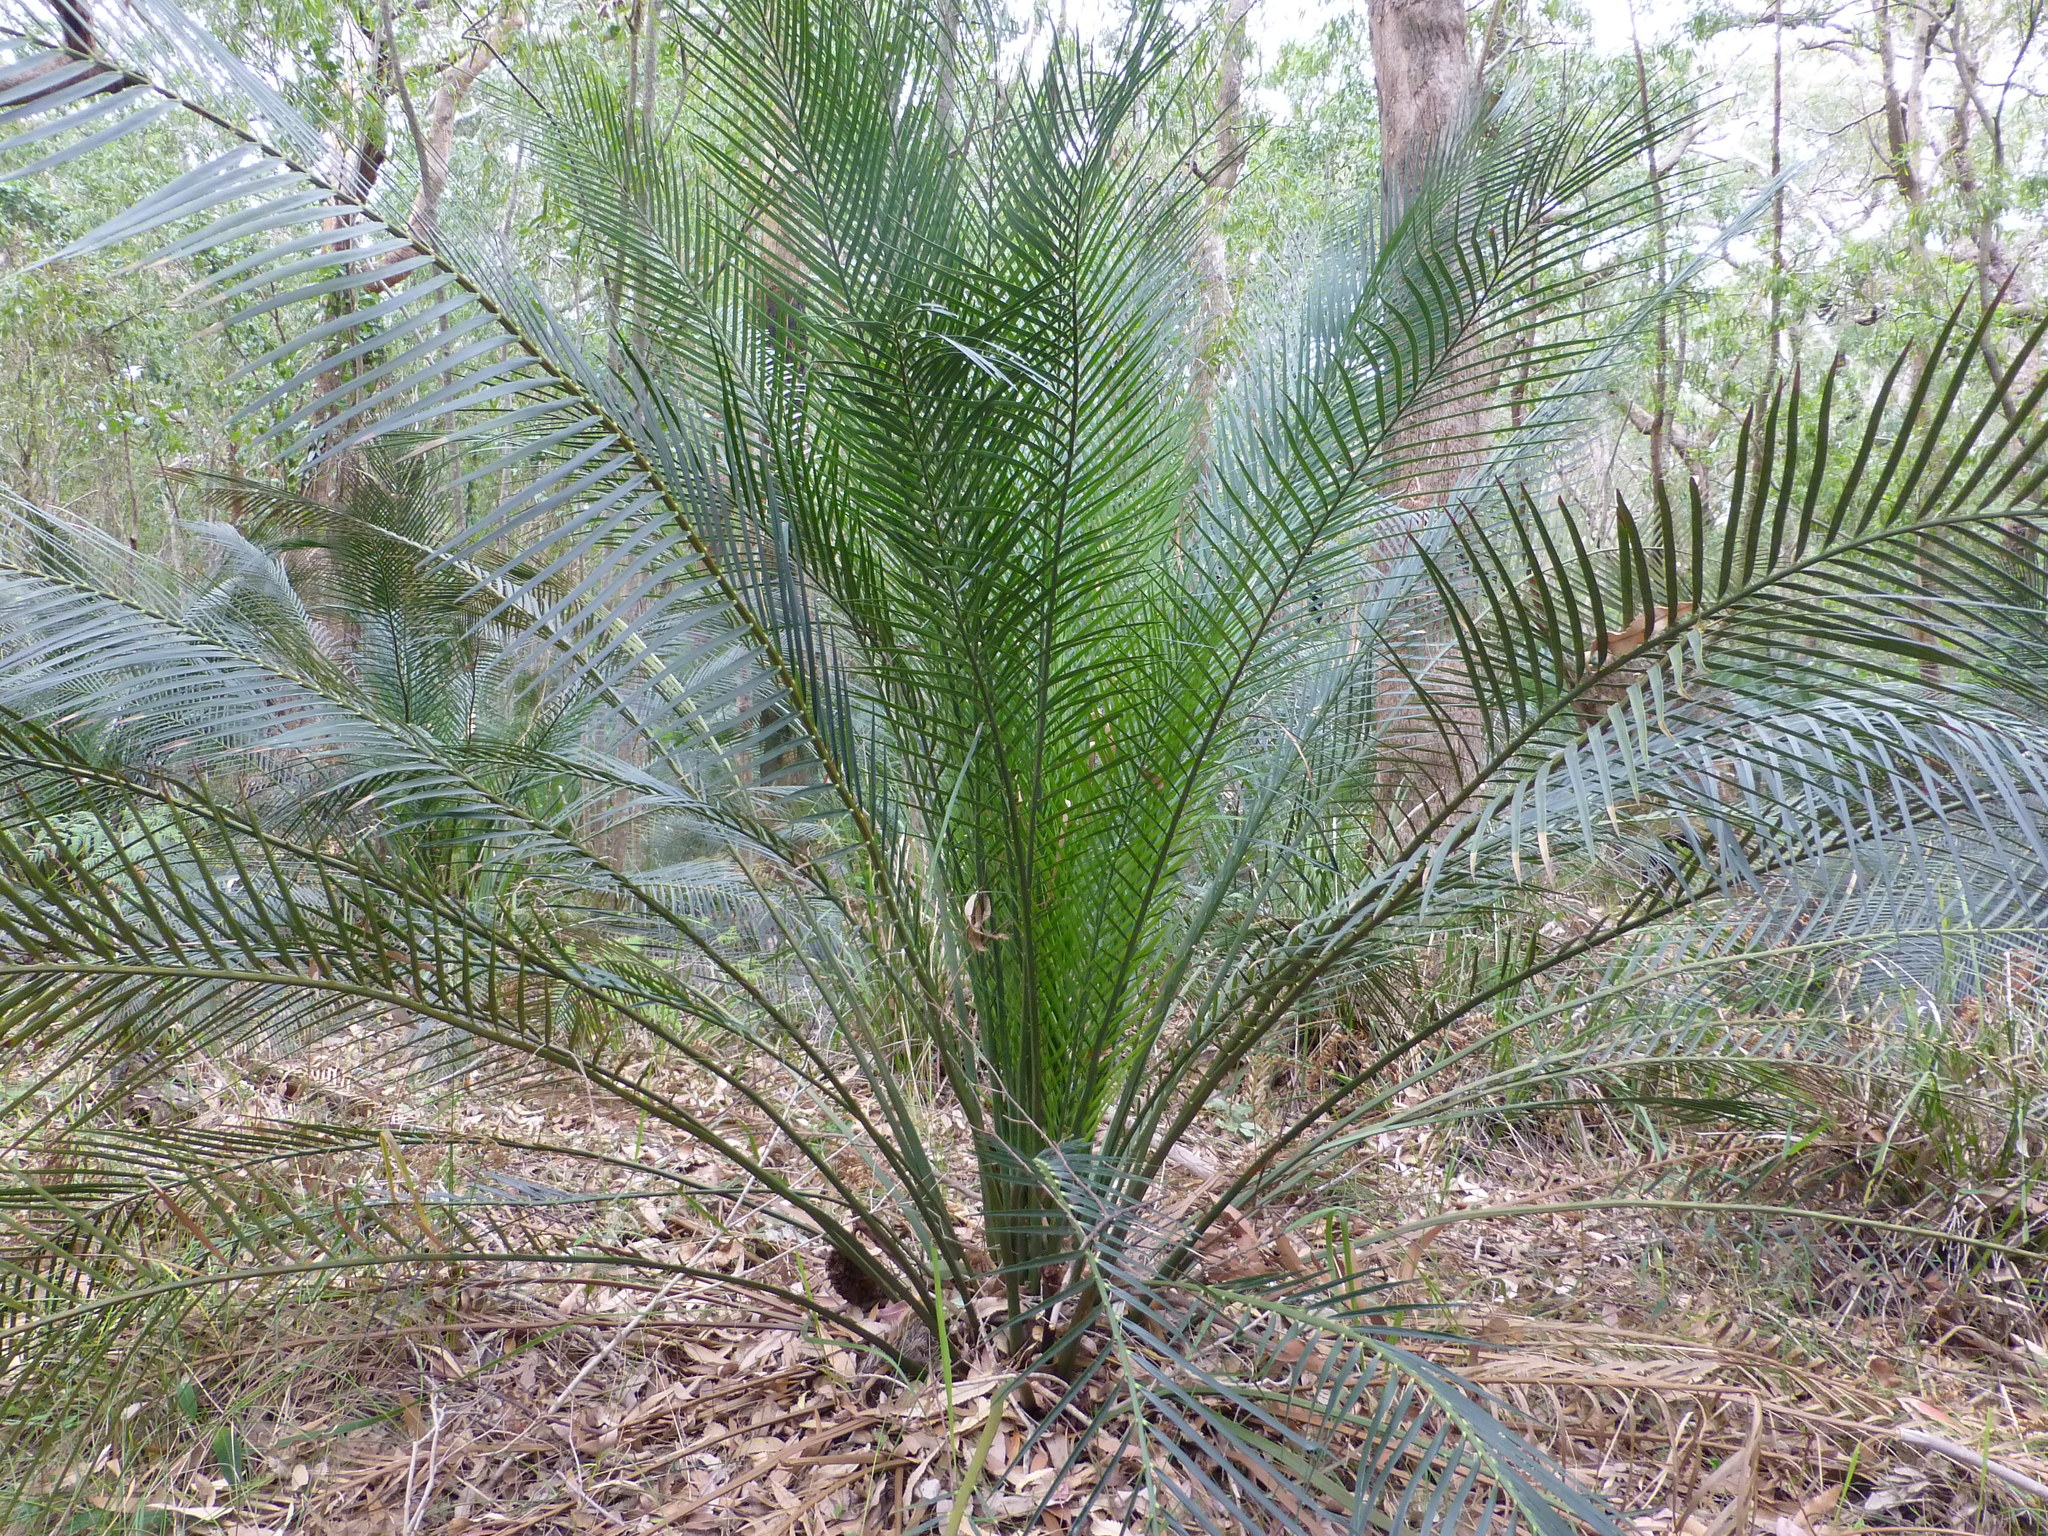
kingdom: Plantae
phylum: Tracheophyta
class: Cycadopsida
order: Cycadales
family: Zamiaceae
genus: Macrozamia
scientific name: Macrozamia communis
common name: Burrawong
